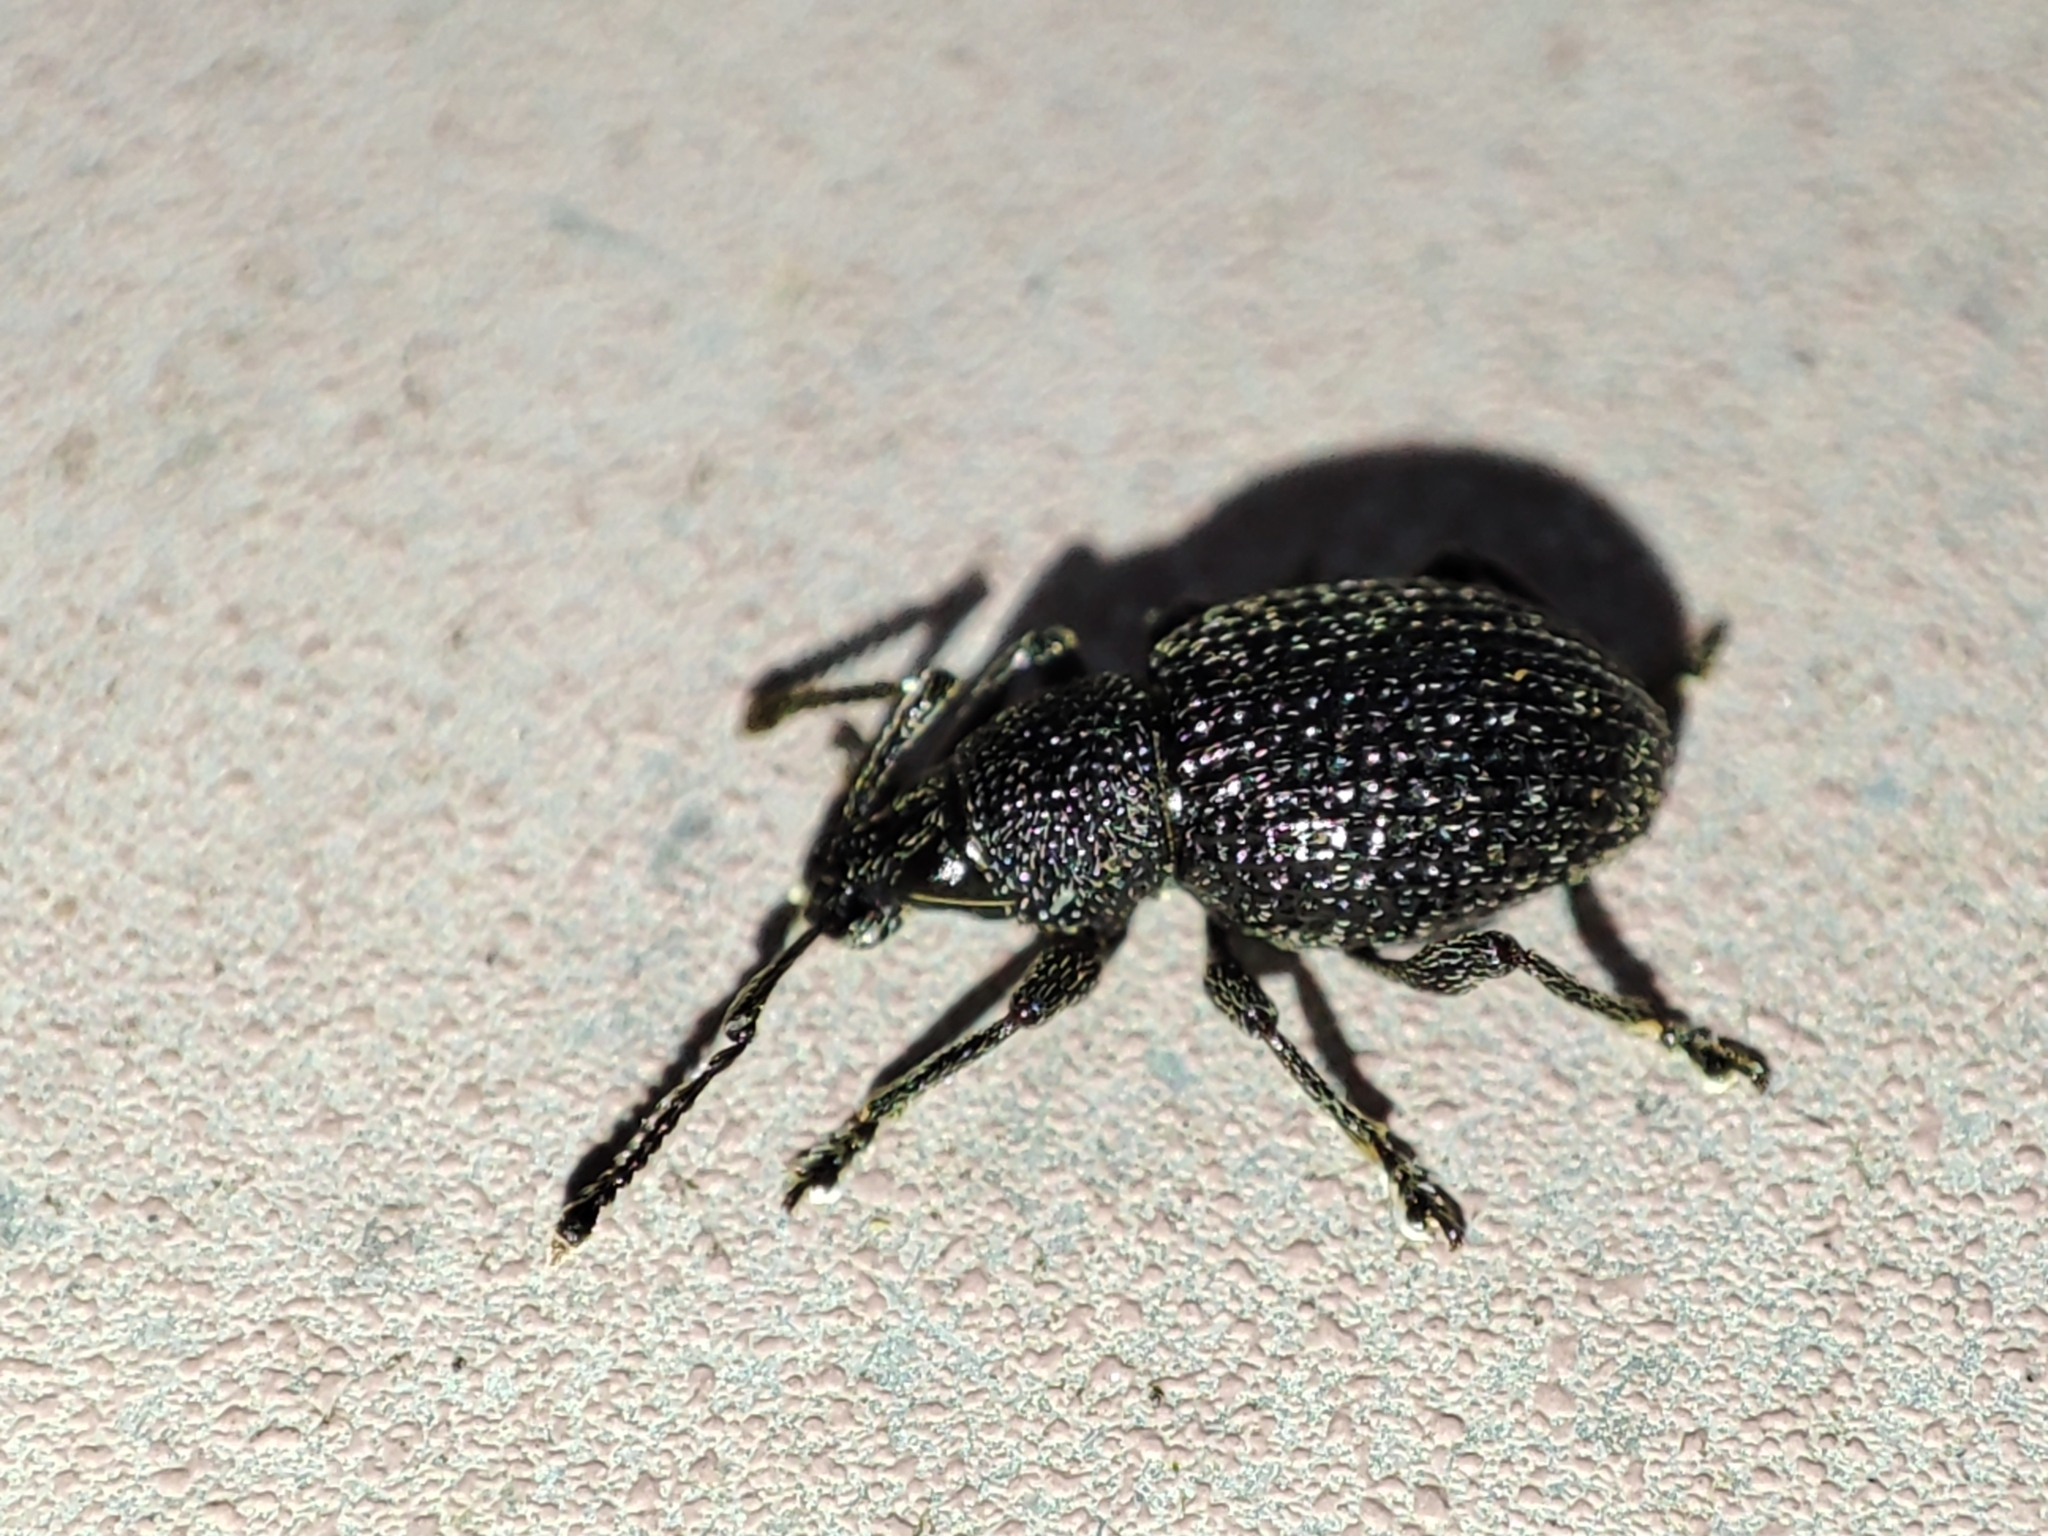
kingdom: Animalia
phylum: Arthropoda
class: Insecta
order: Coleoptera
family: Curculionidae
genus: Otiorhynchus
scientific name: Otiorhynchus pinastri
